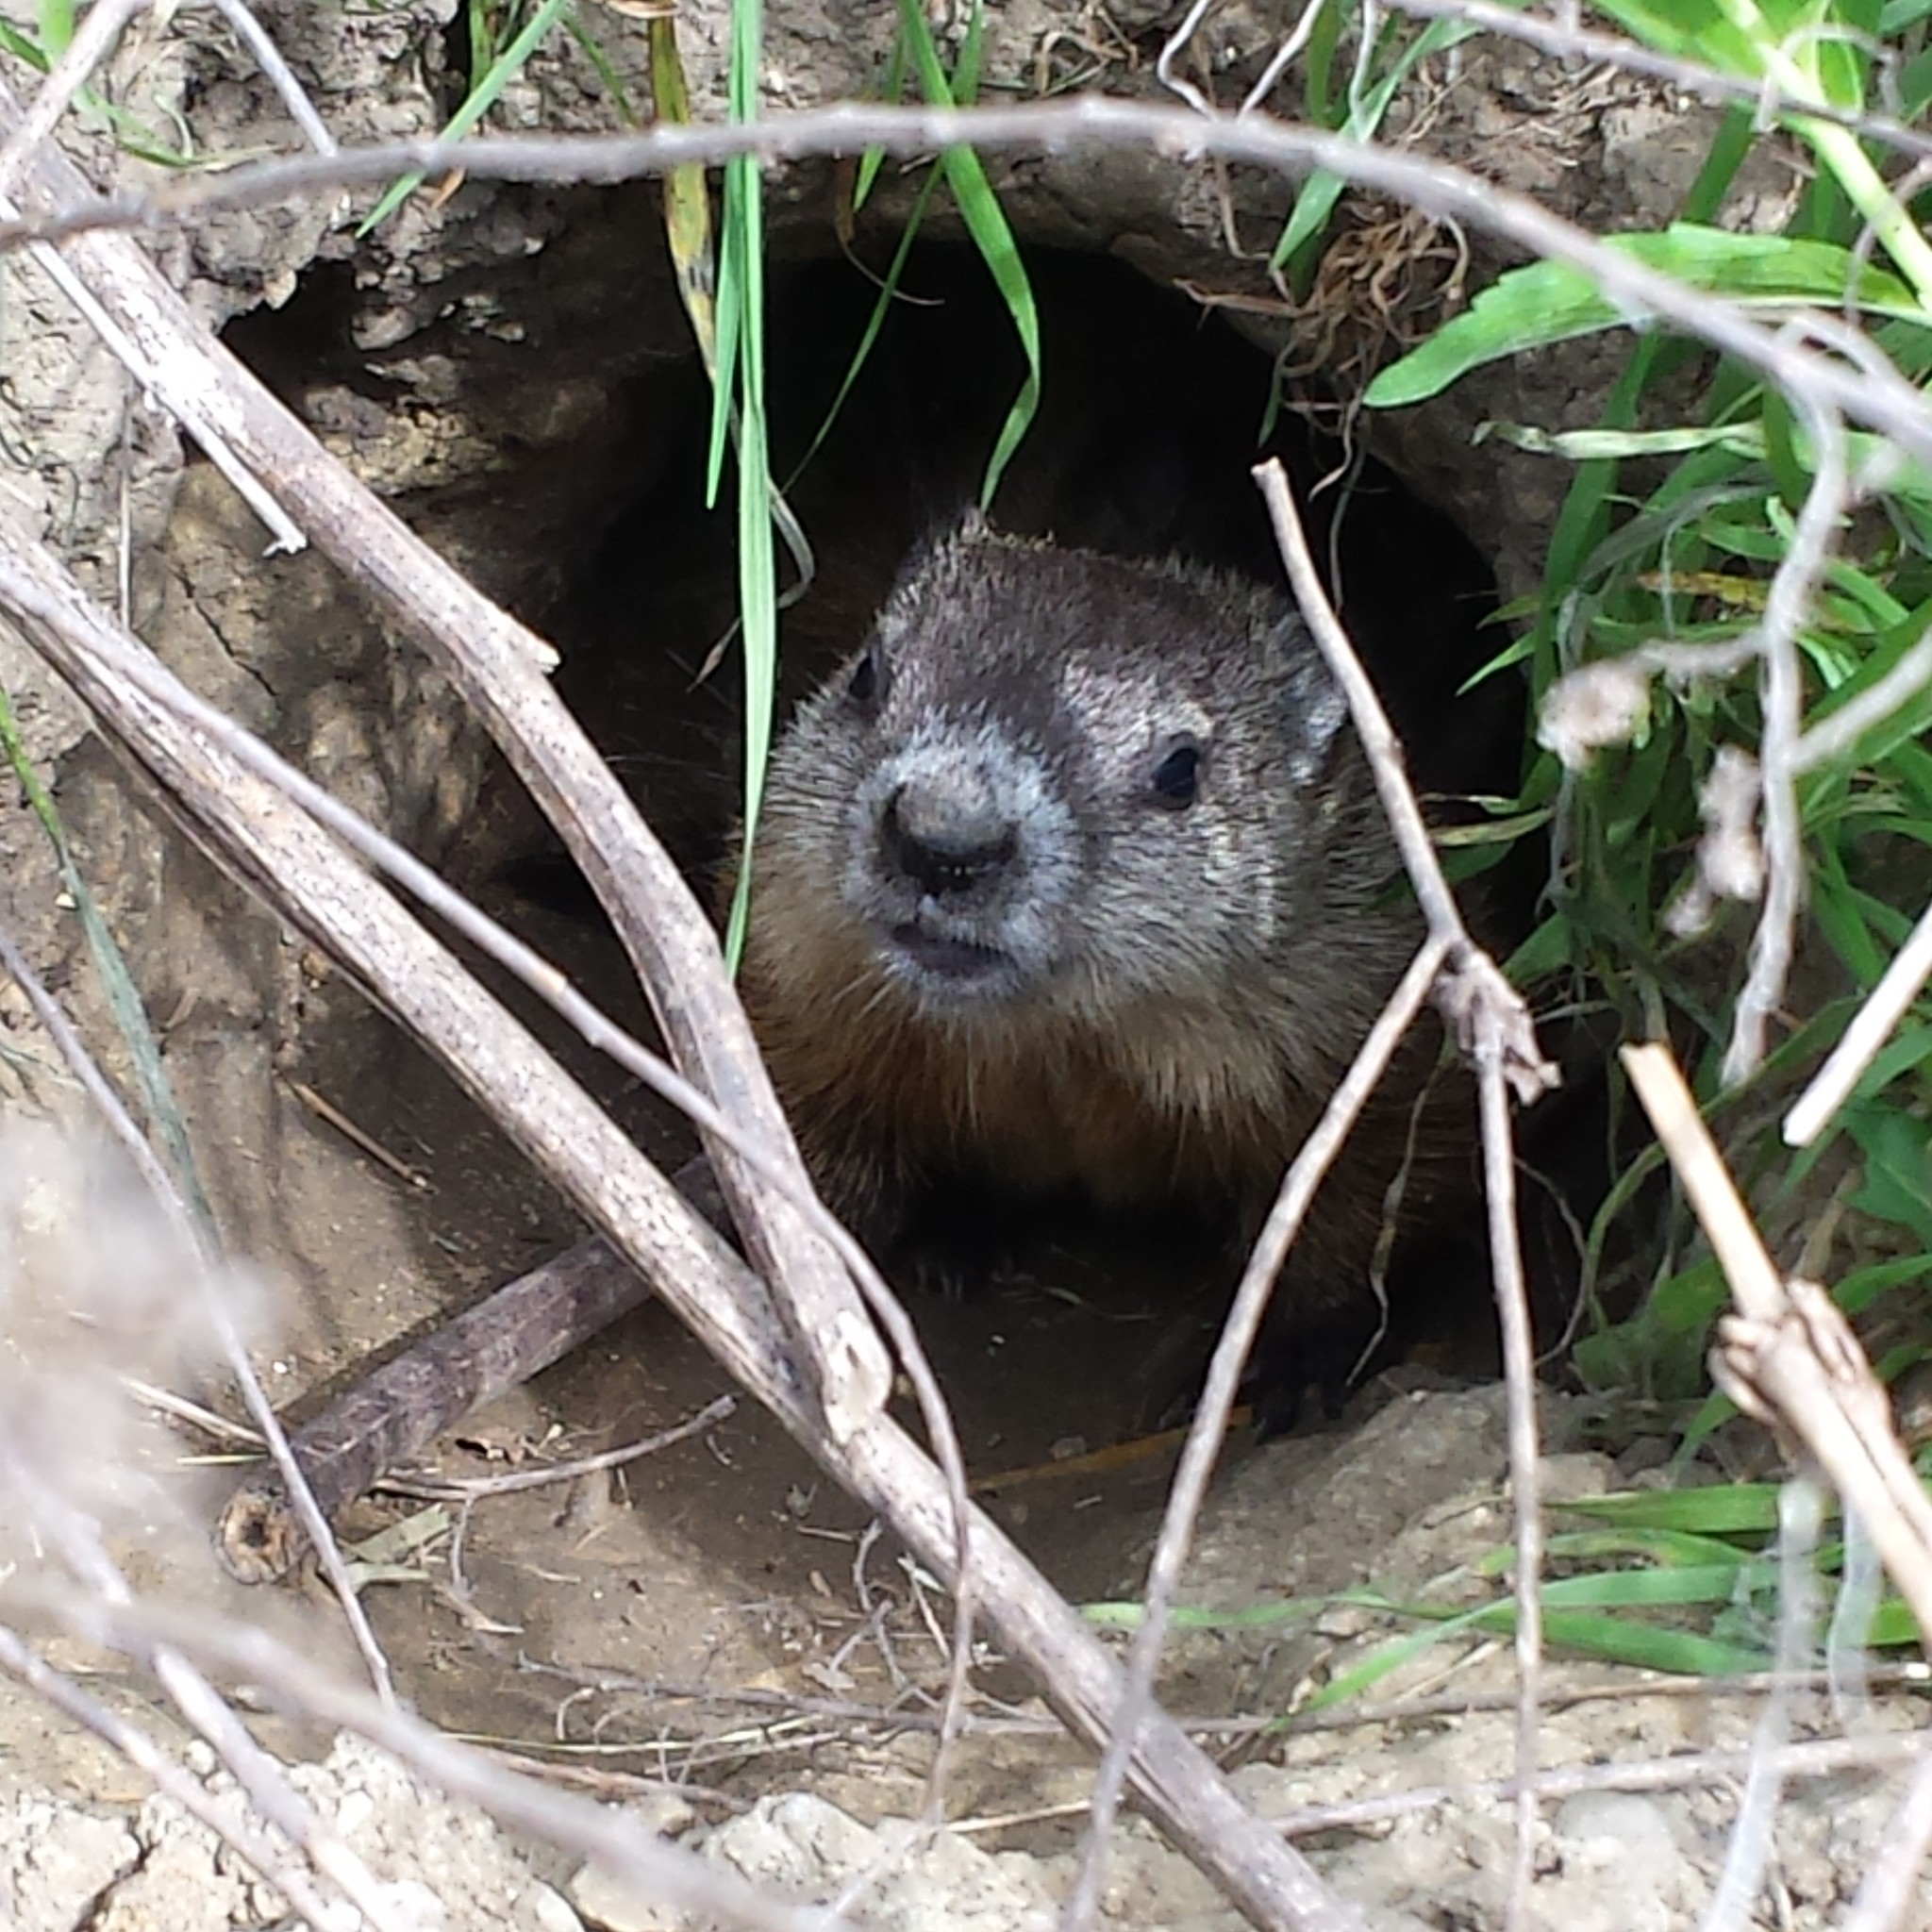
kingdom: Animalia
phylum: Chordata
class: Mammalia
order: Rodentia
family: Sciuridae
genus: Marmota
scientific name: Marmota monax
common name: Groundhog
